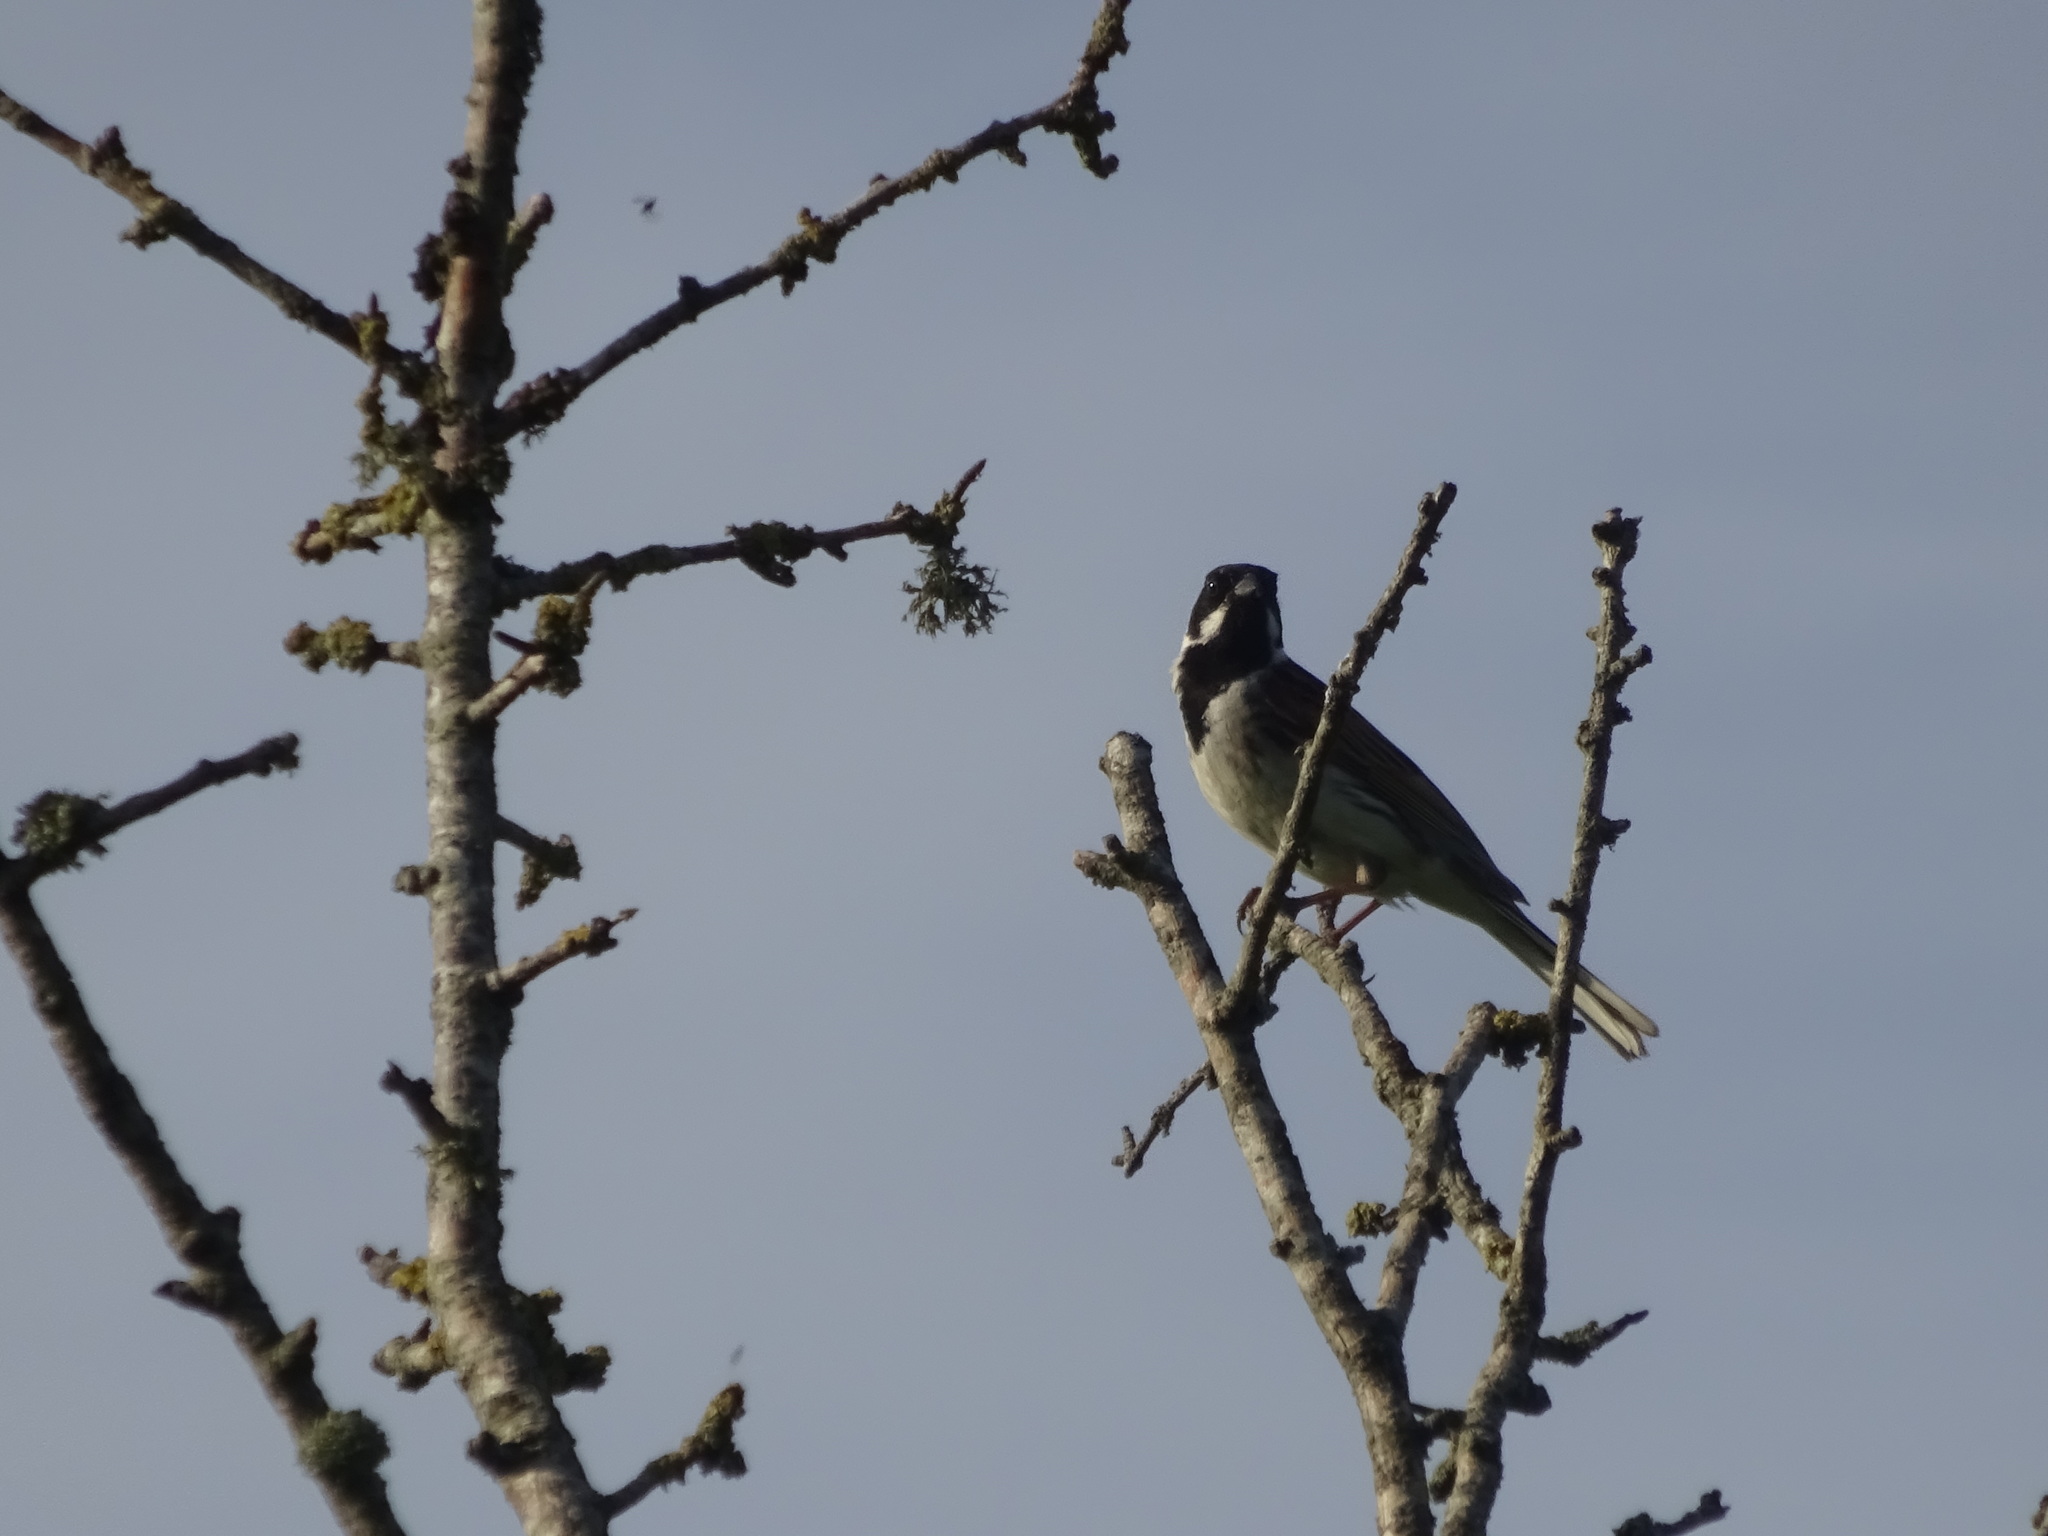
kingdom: Animalia
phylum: Chordata
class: Aves
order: Passeriformes
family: Emberizidae
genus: Emberiza
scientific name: Emberiza schoeniclus
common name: Reed bunting
